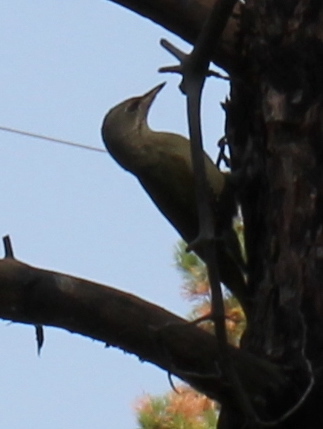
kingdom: Animalia
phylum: Chordata
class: Aves
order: Piciformes
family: Picidae
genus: Picus
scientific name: Picus canus
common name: Grey-headed woodpecker
